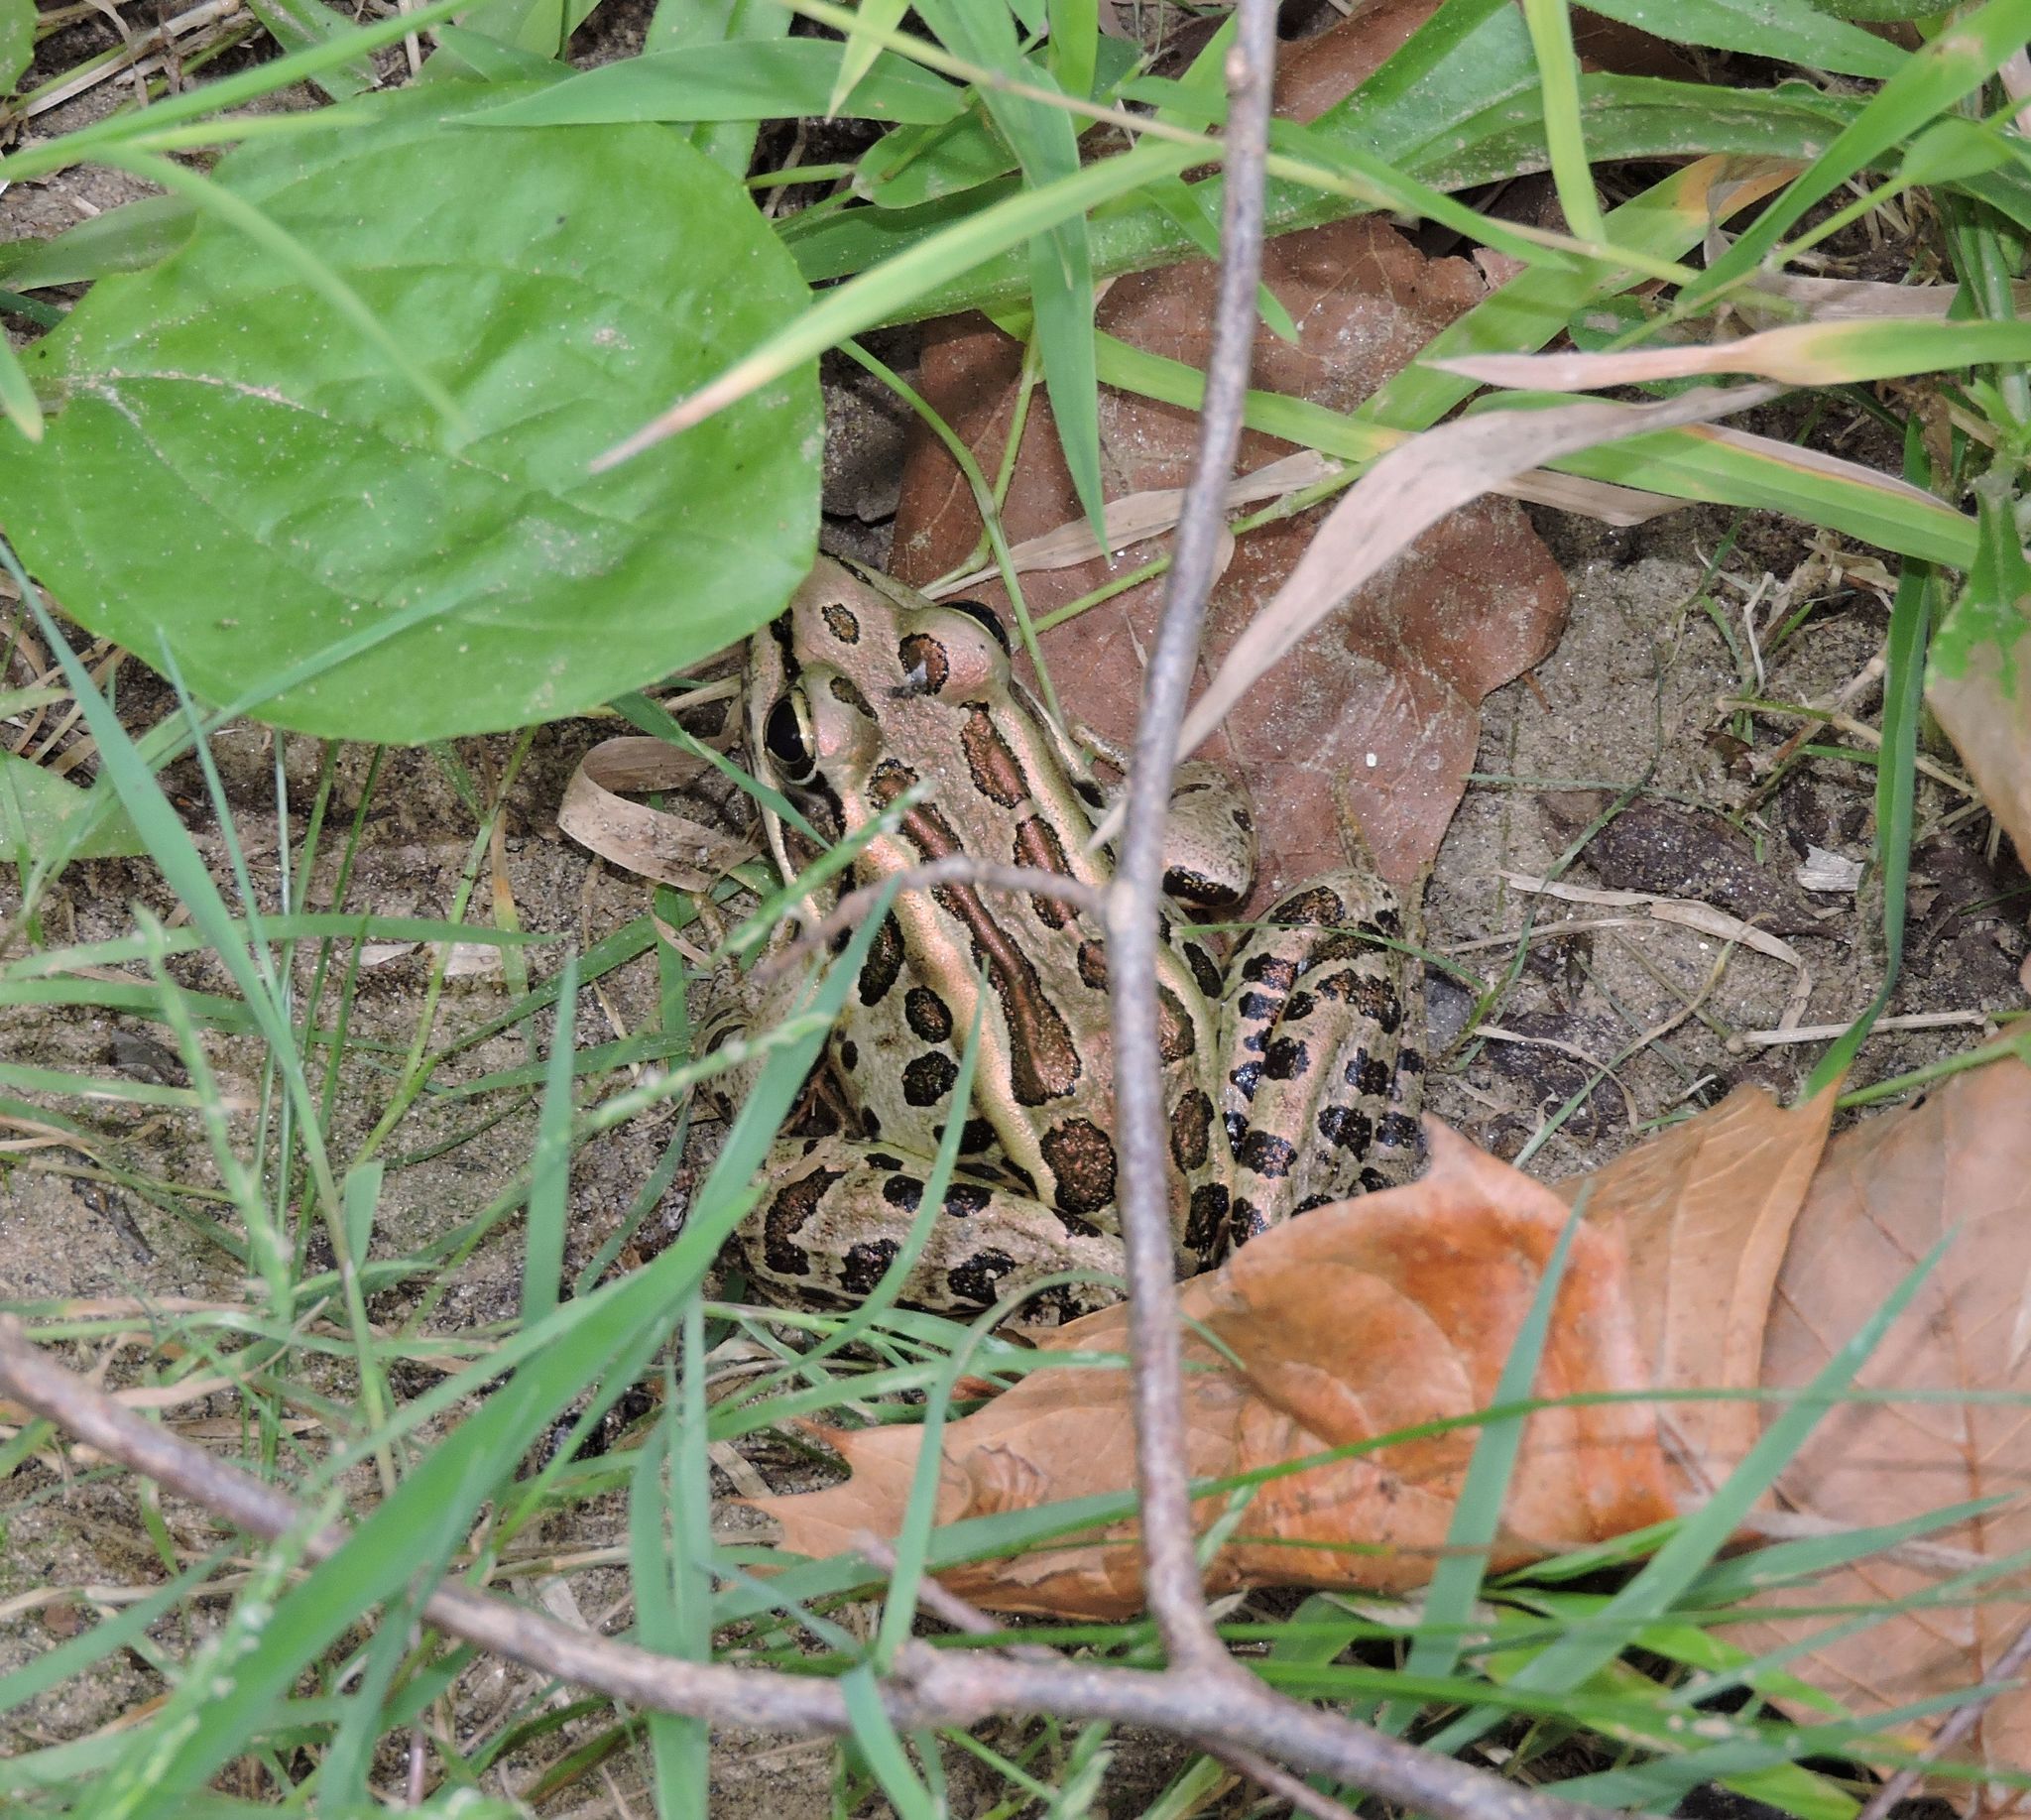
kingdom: Animalia
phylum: Chordata
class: Amphibia
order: Anura
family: Ranidae
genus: Lithobates
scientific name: Lithobates palustris
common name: Pickerel frog
